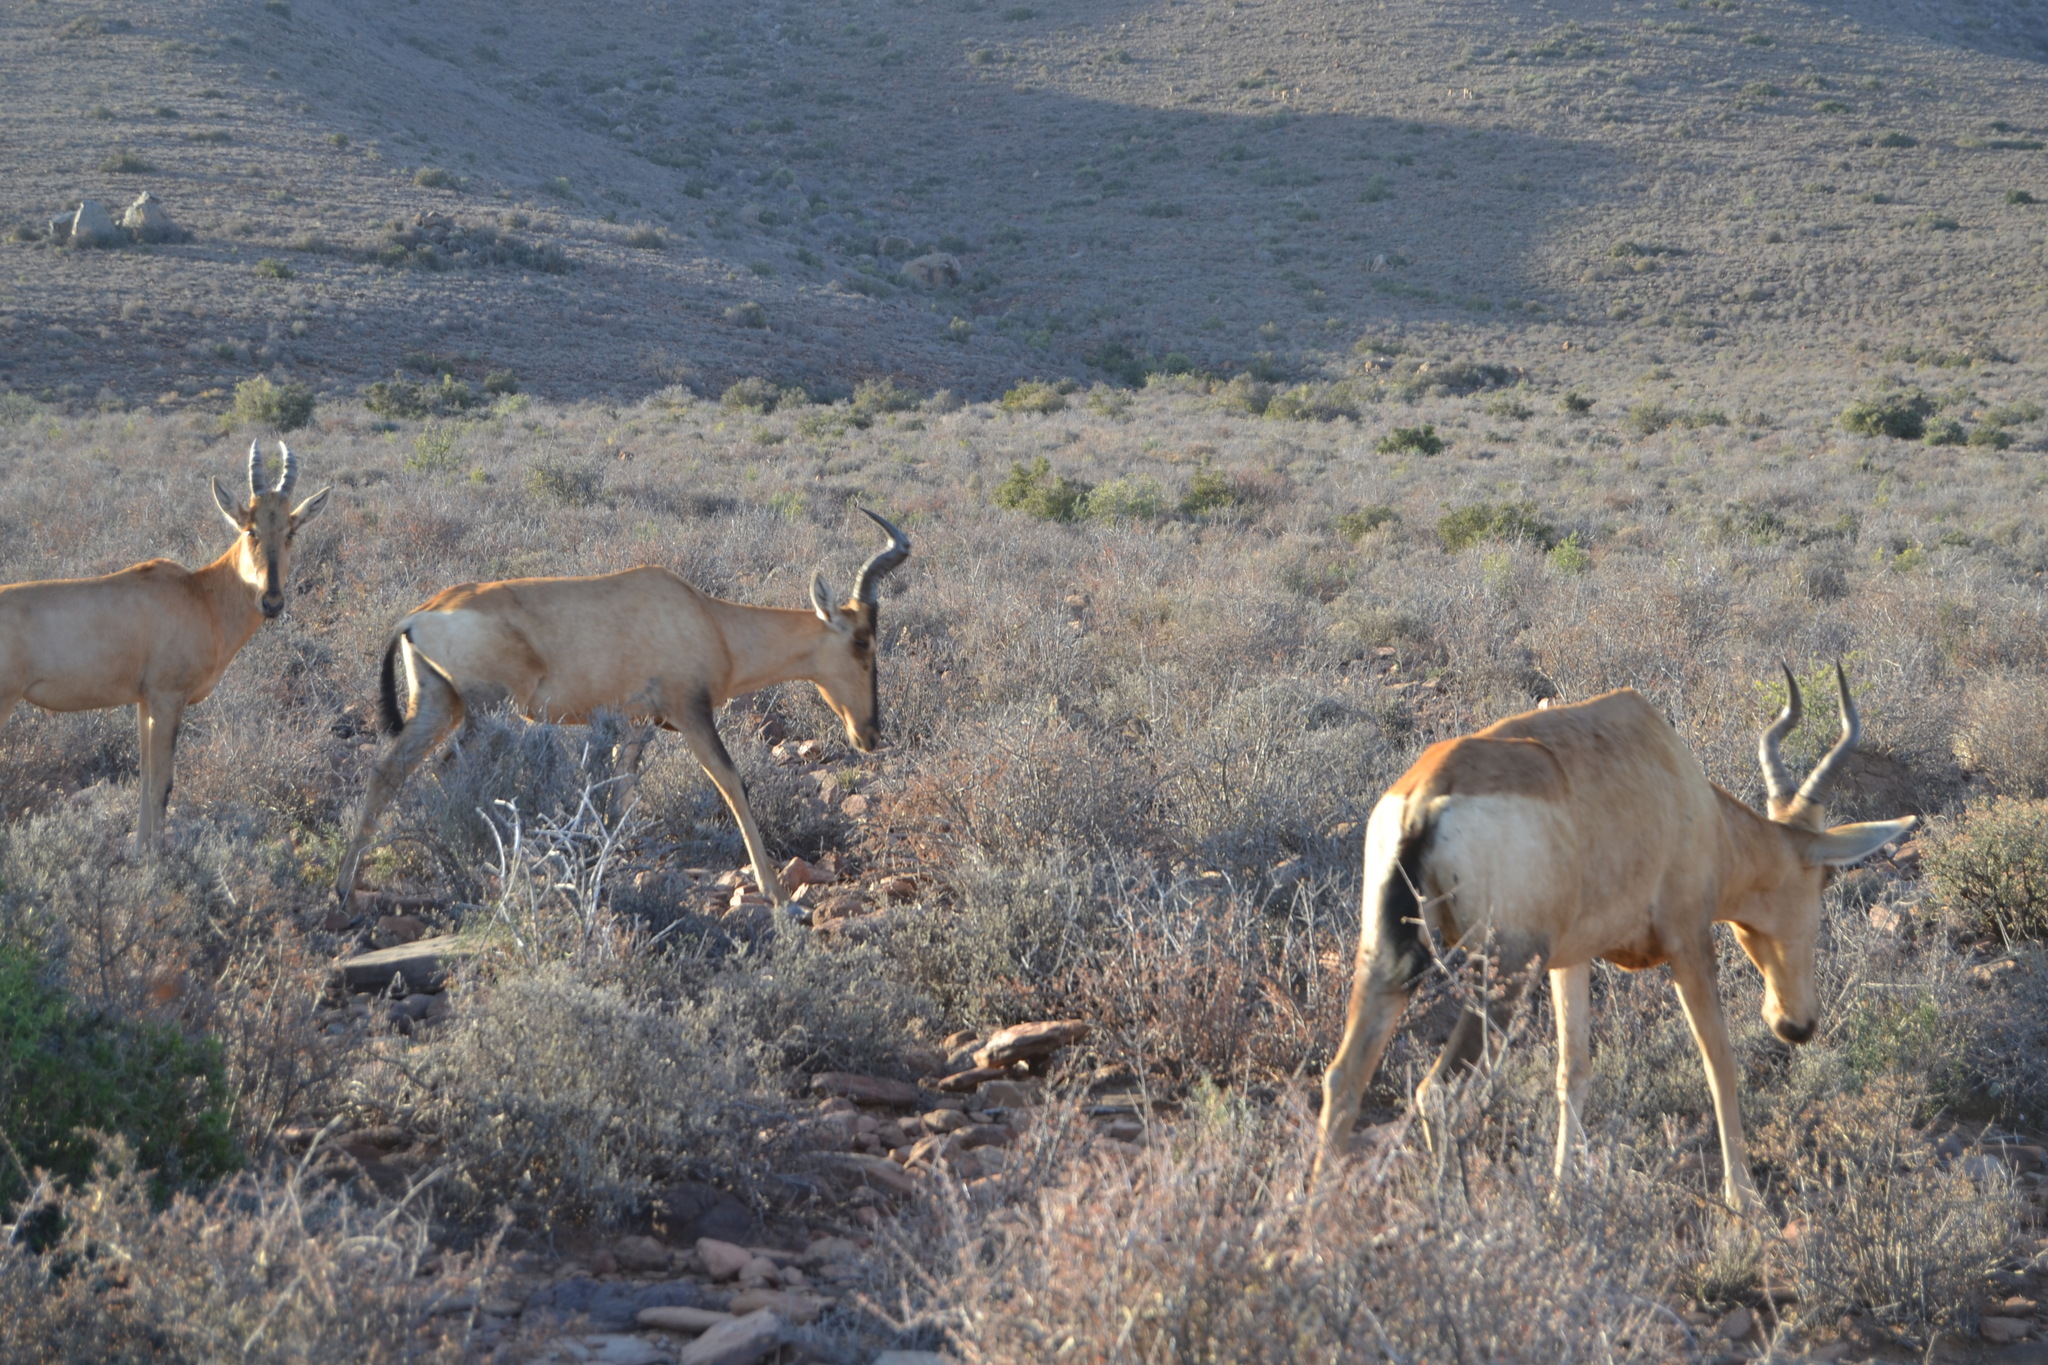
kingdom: Animalia
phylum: Chordata
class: Mammalia
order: Artiodactyla
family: Bovidae
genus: Alcelaphus
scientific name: Alcelaphus caama
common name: Red hartebeest
